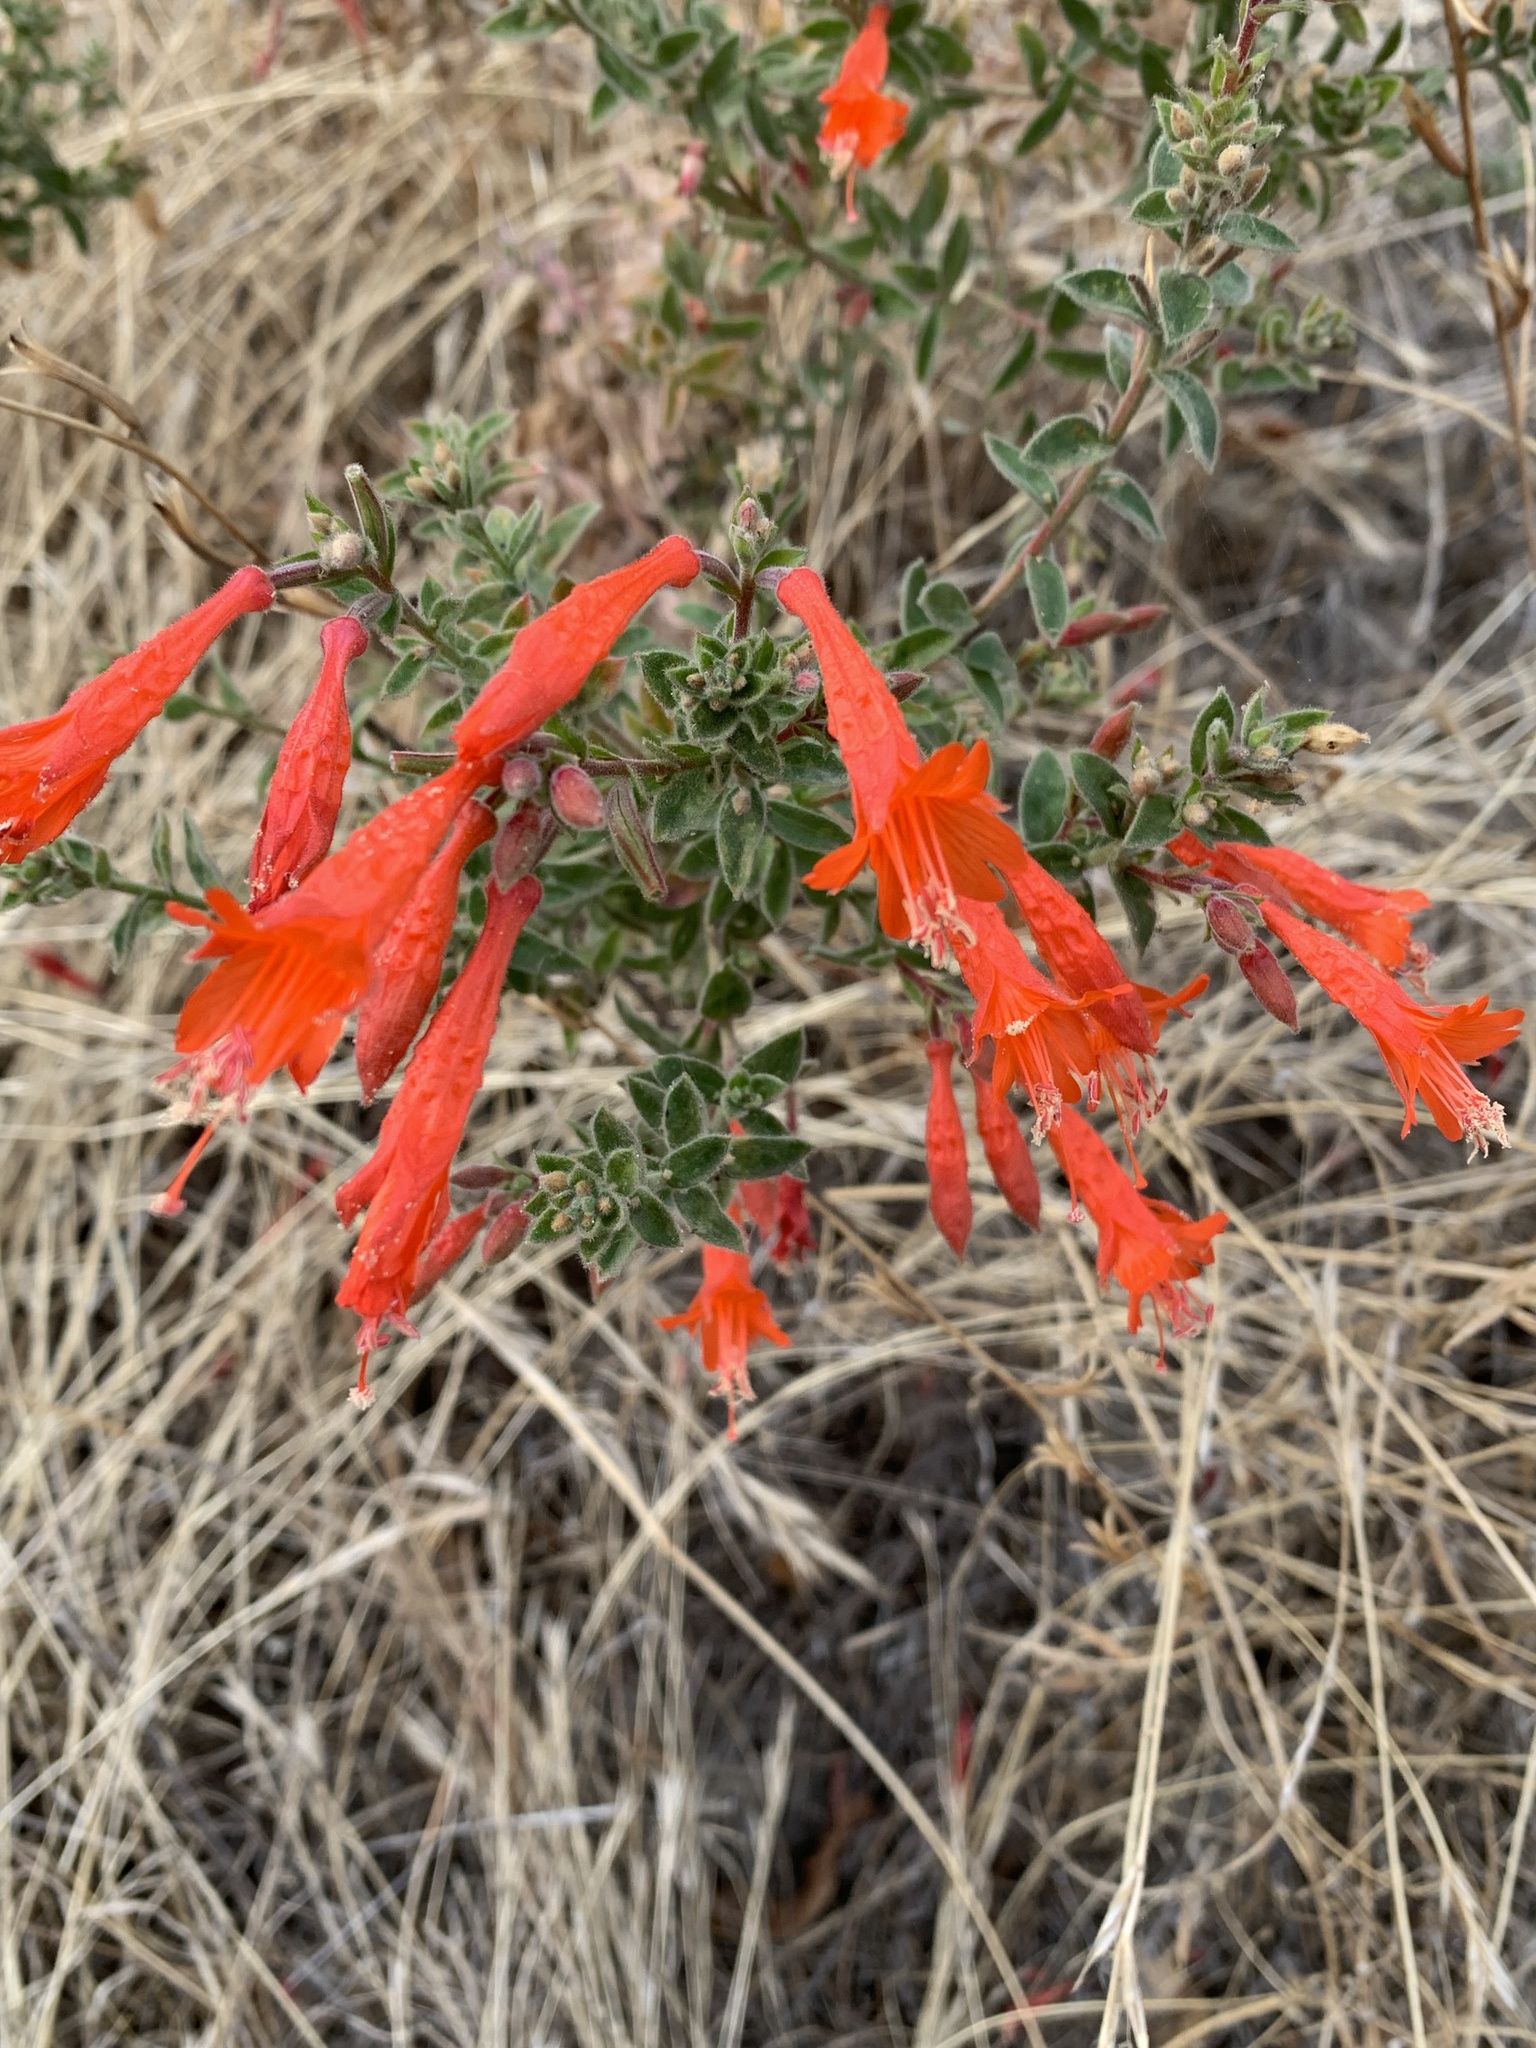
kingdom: Plantae
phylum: Tracheophyta
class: Magnoliopsida
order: Myrtales
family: Onagraceae
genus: Epilobium
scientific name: Epilobium canum
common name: California-fuchsia
